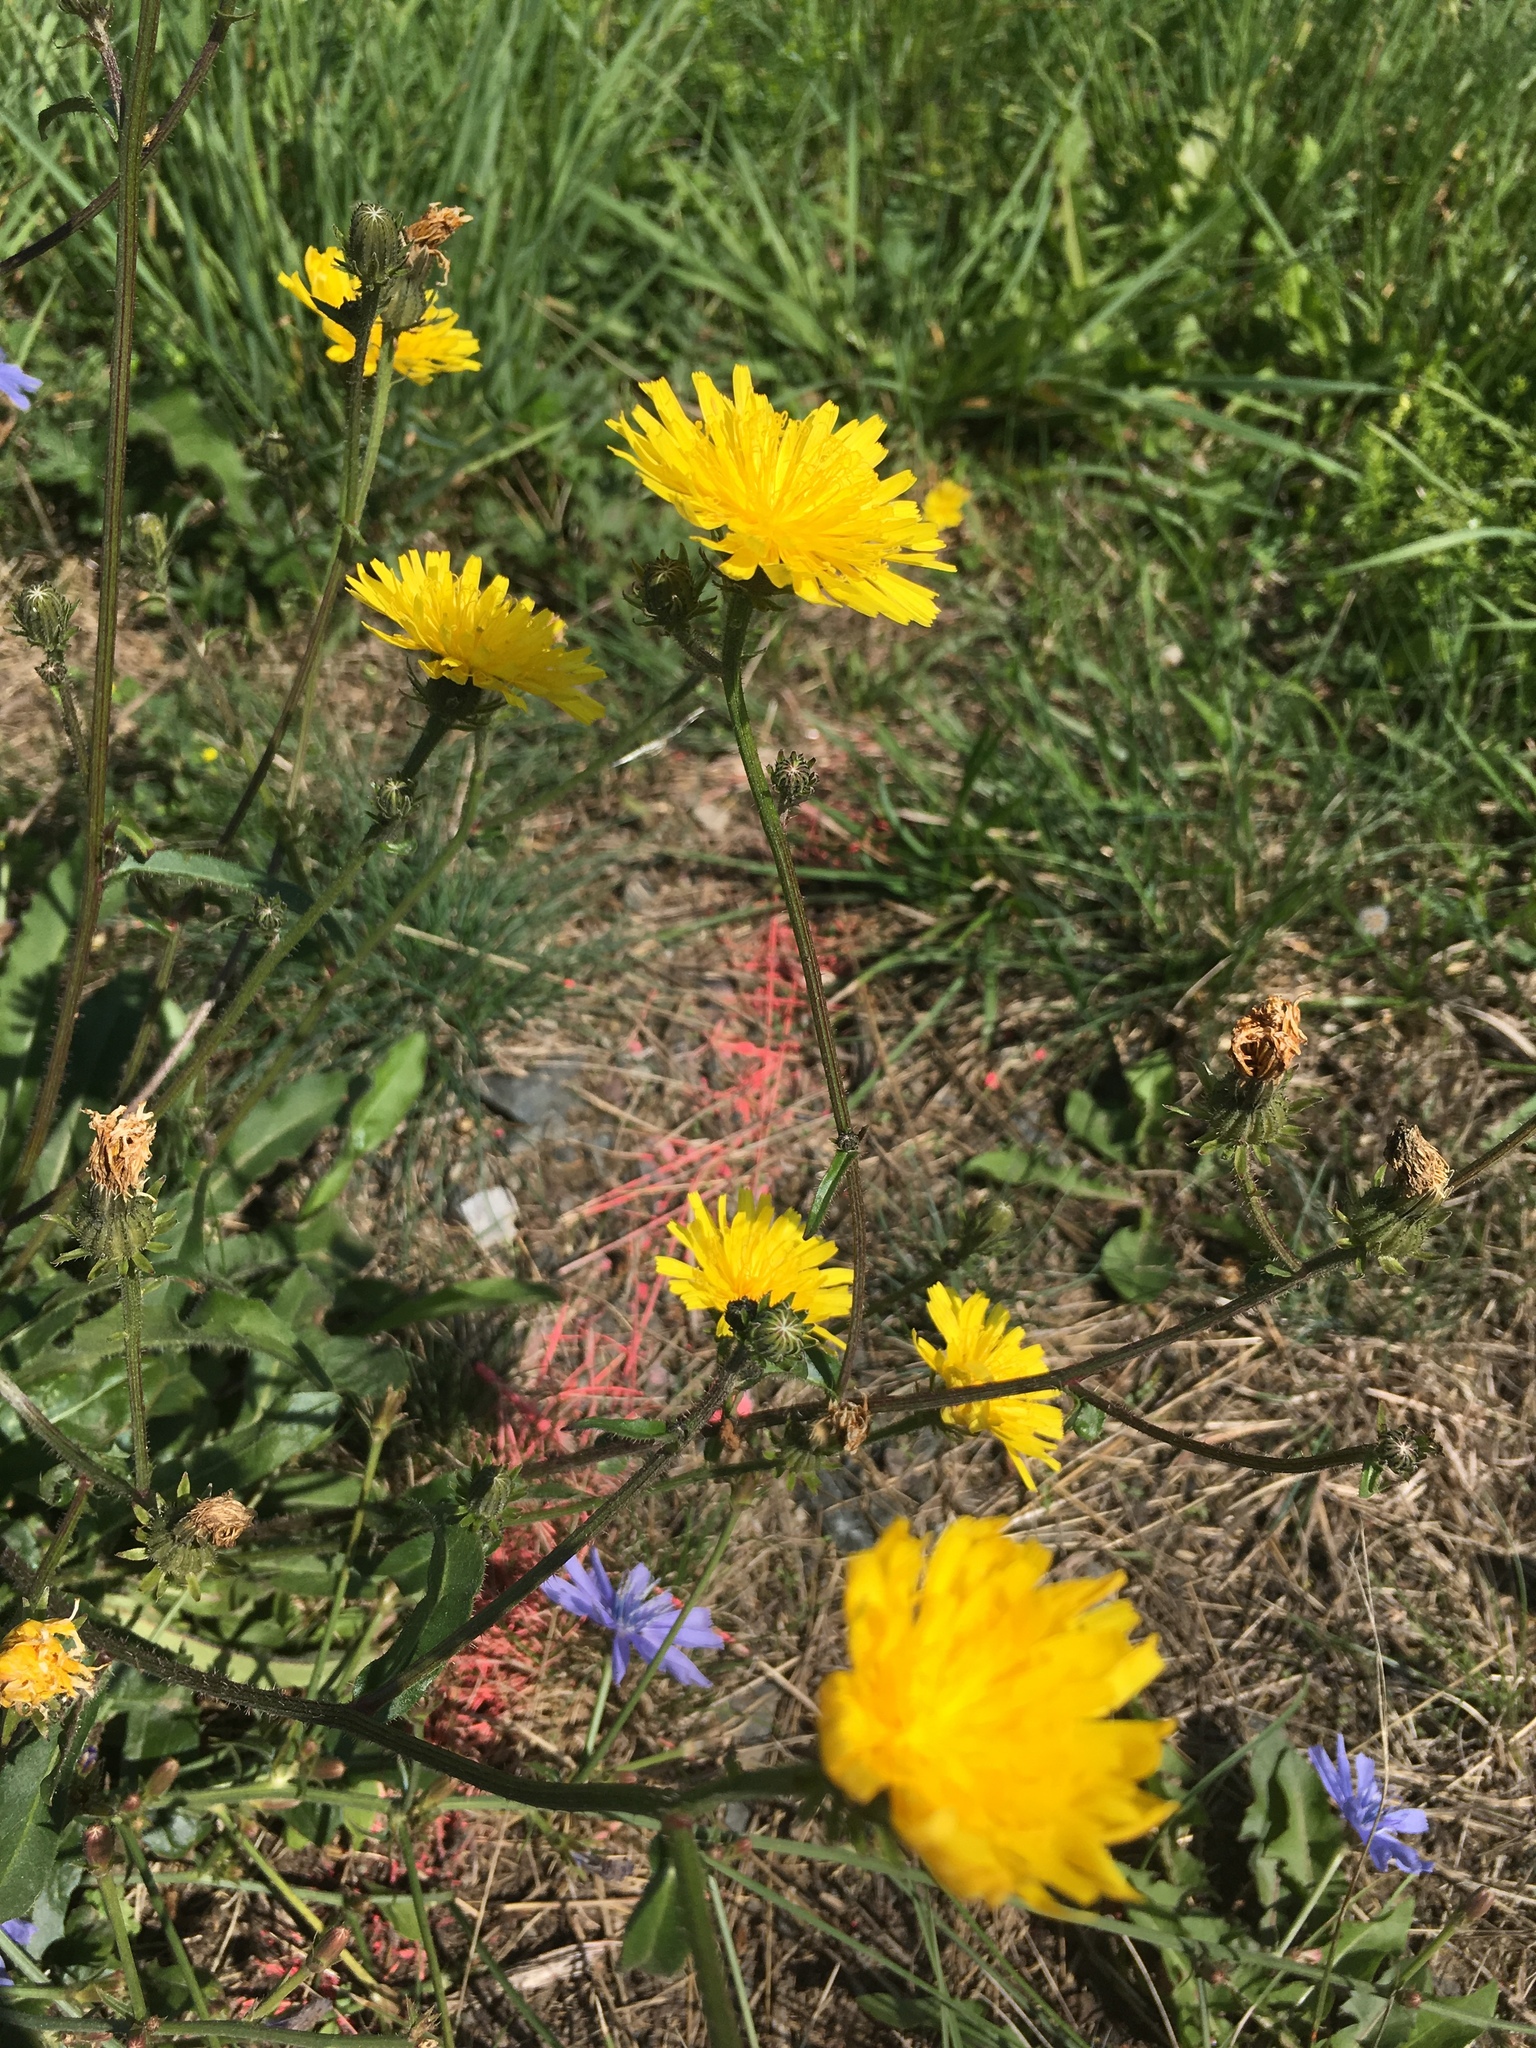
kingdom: Plantae
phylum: Tracheophyta
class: Magnoliopsida
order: Asterales
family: Asteraceae
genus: Picris
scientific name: Picris hieracioides
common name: Hawkweed oxtongue
